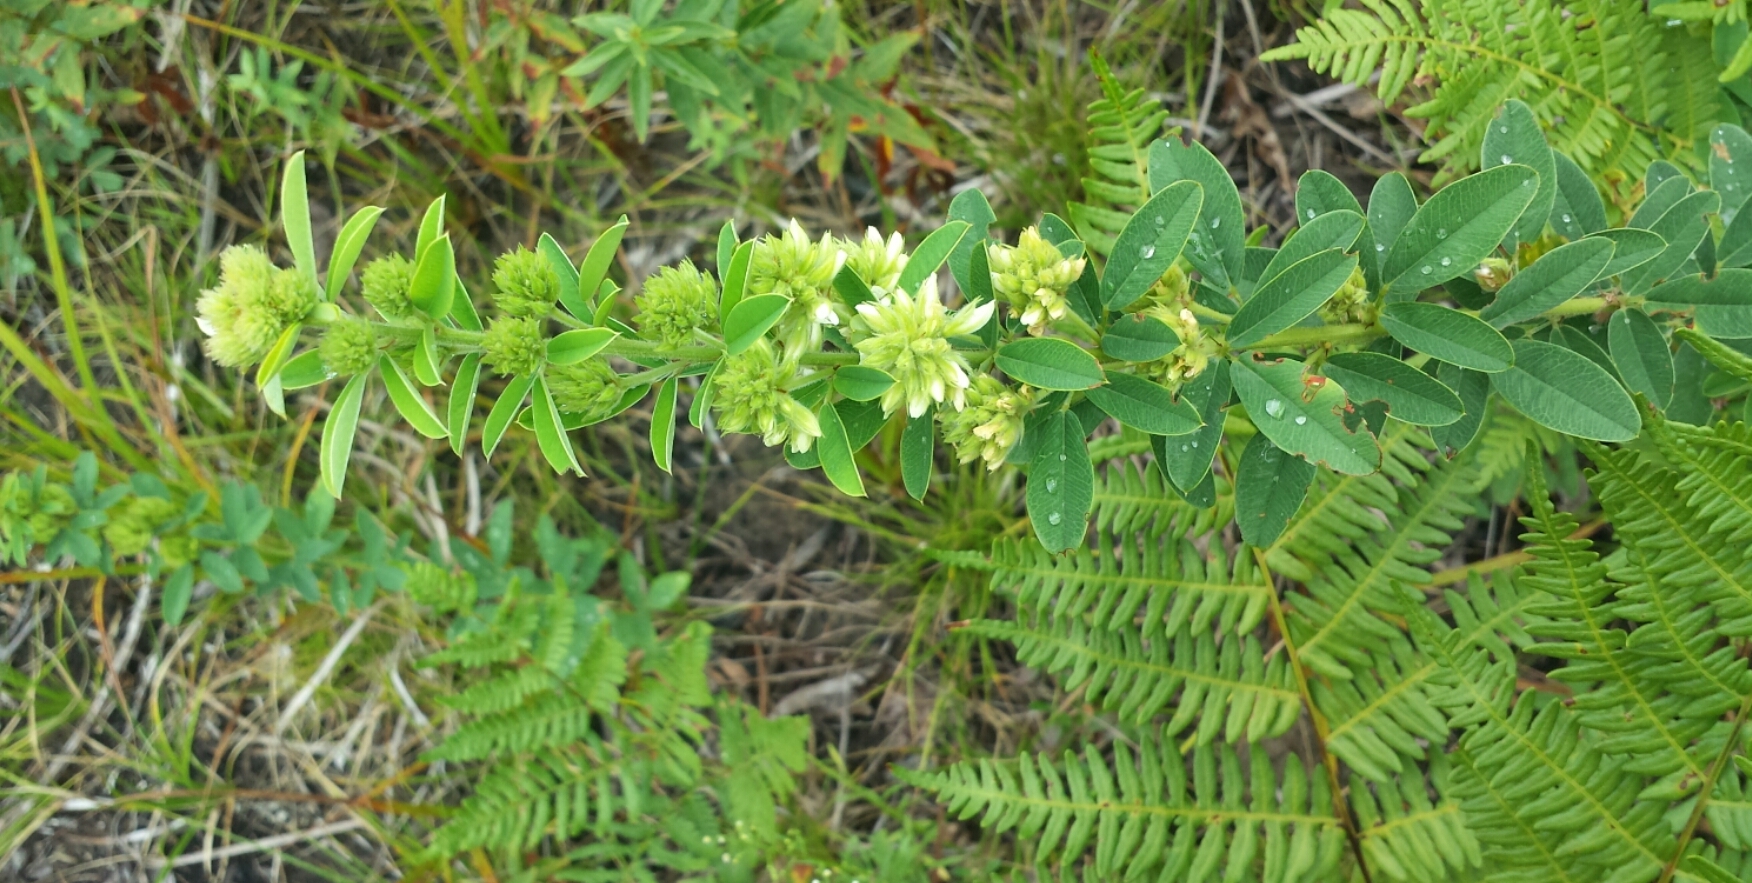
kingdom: Plantae
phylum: Tracheophyta
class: Magnoliopsida
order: Fabales
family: Fabaceae
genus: Lespedeza
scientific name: Lespedeza capitata
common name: Dusty clover
